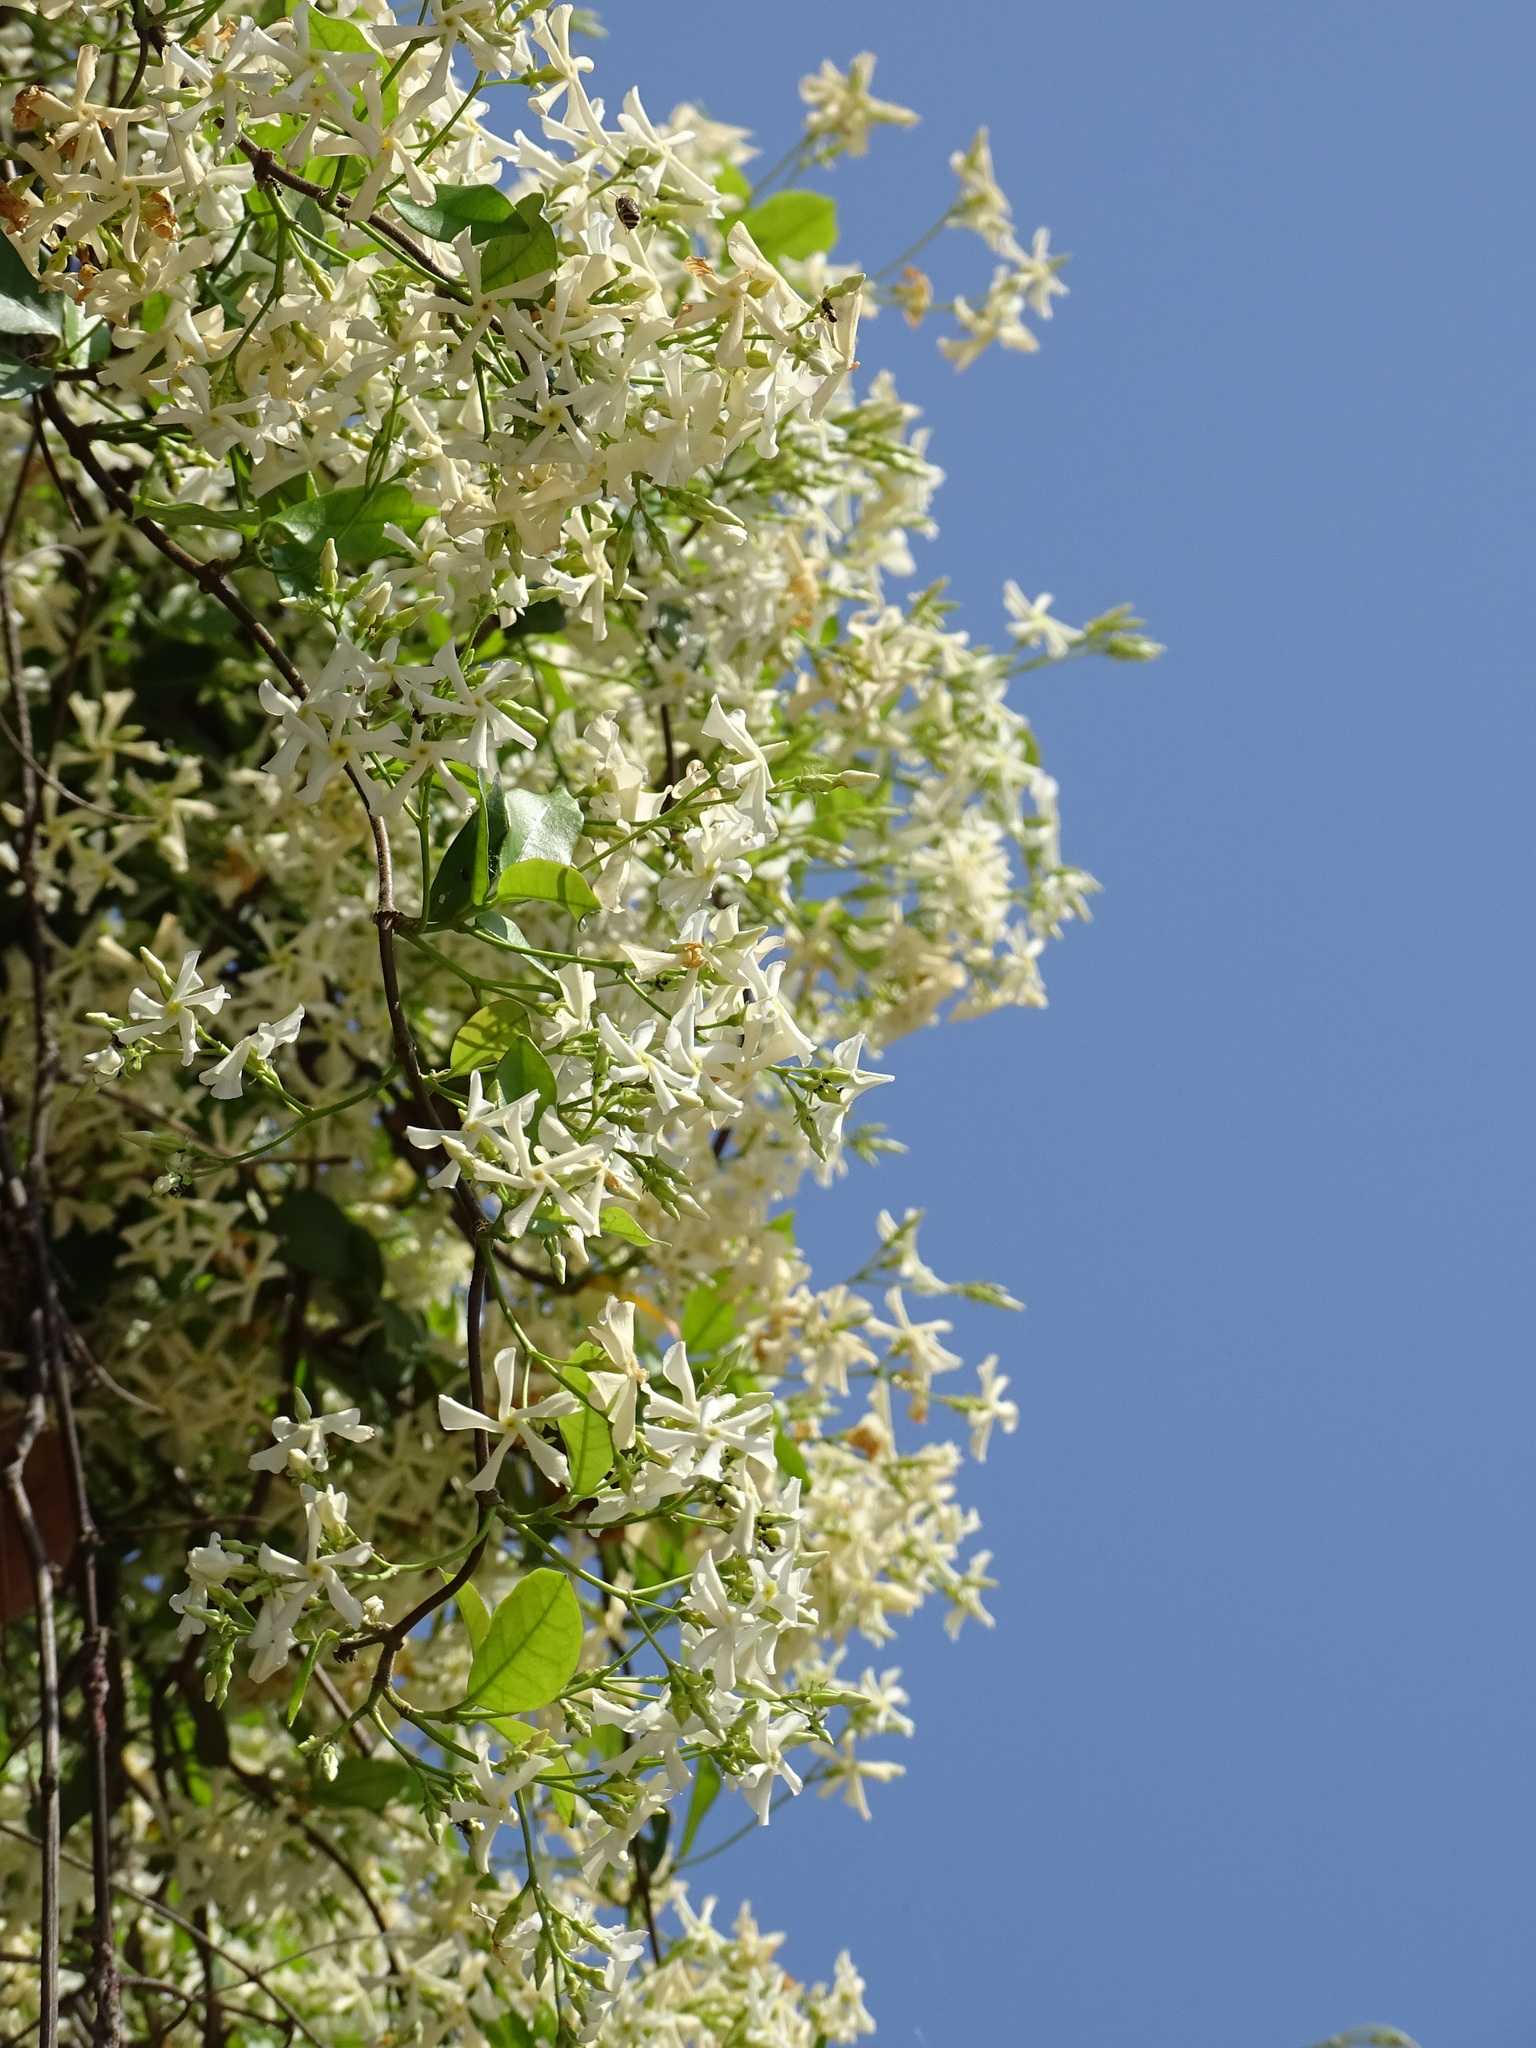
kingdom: Plantae
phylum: Tracheophyta
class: Magnoliopsida
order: Gentianales
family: Apocynaceae
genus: Trachelospermum
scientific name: Trachelospermum jasminoides
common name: Confederate jasmine
